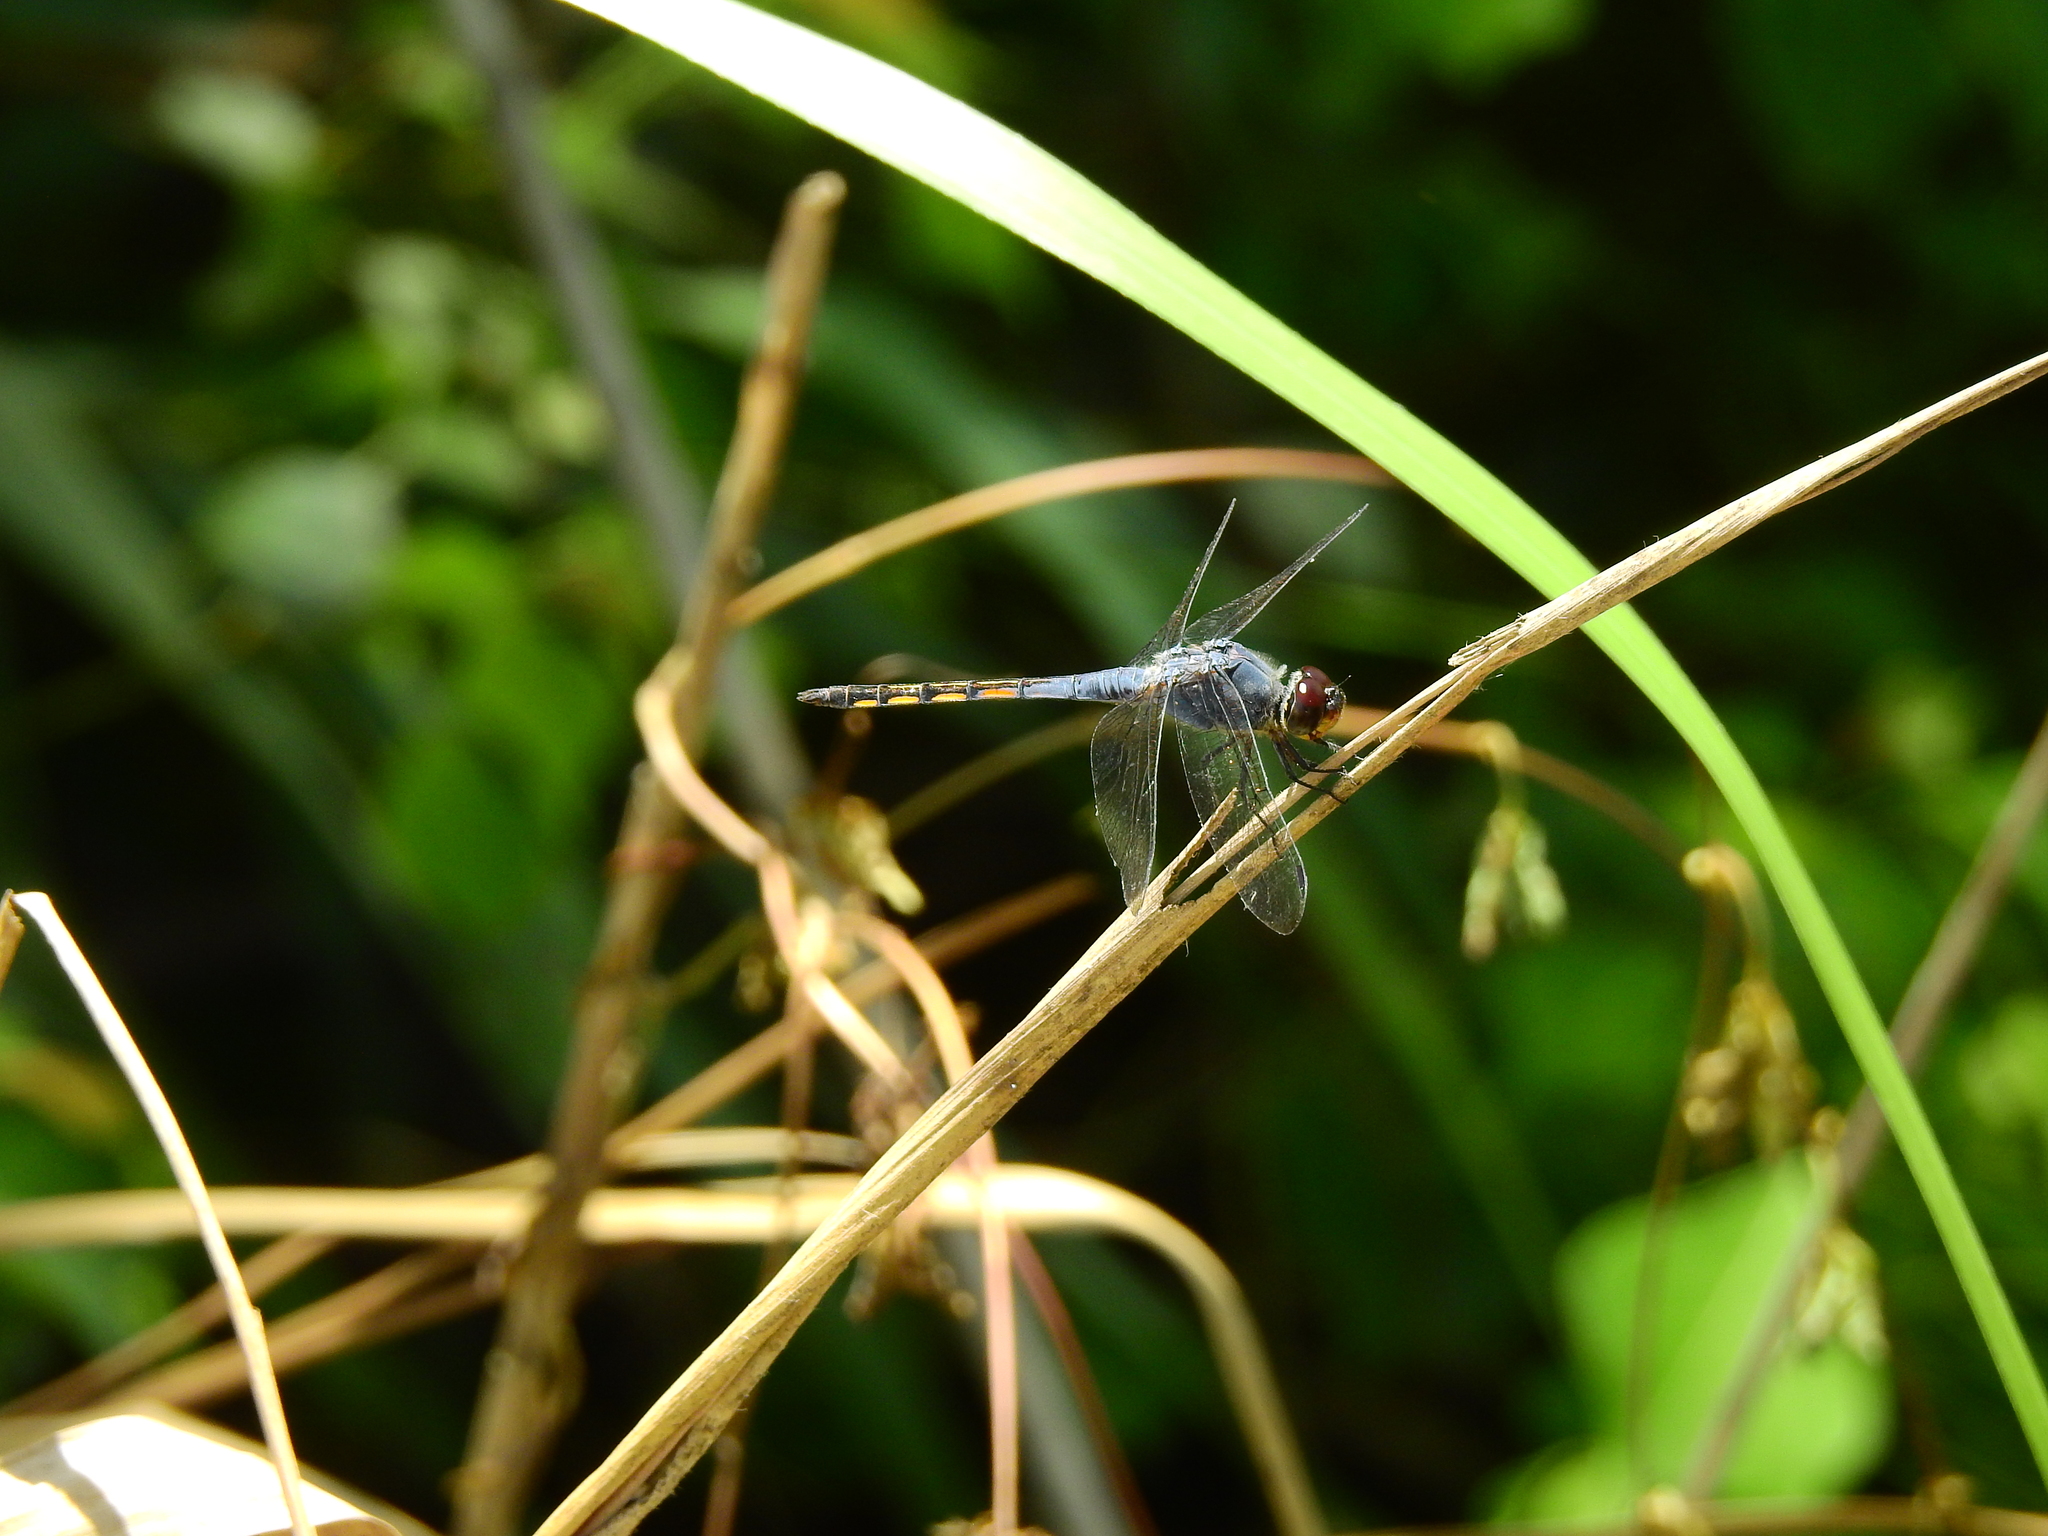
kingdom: Animalia
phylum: Arthropoda
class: Insecta
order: Odonata
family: Libellulidae
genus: Potamarcha
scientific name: Potamarcha congener
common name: Blue chaser
